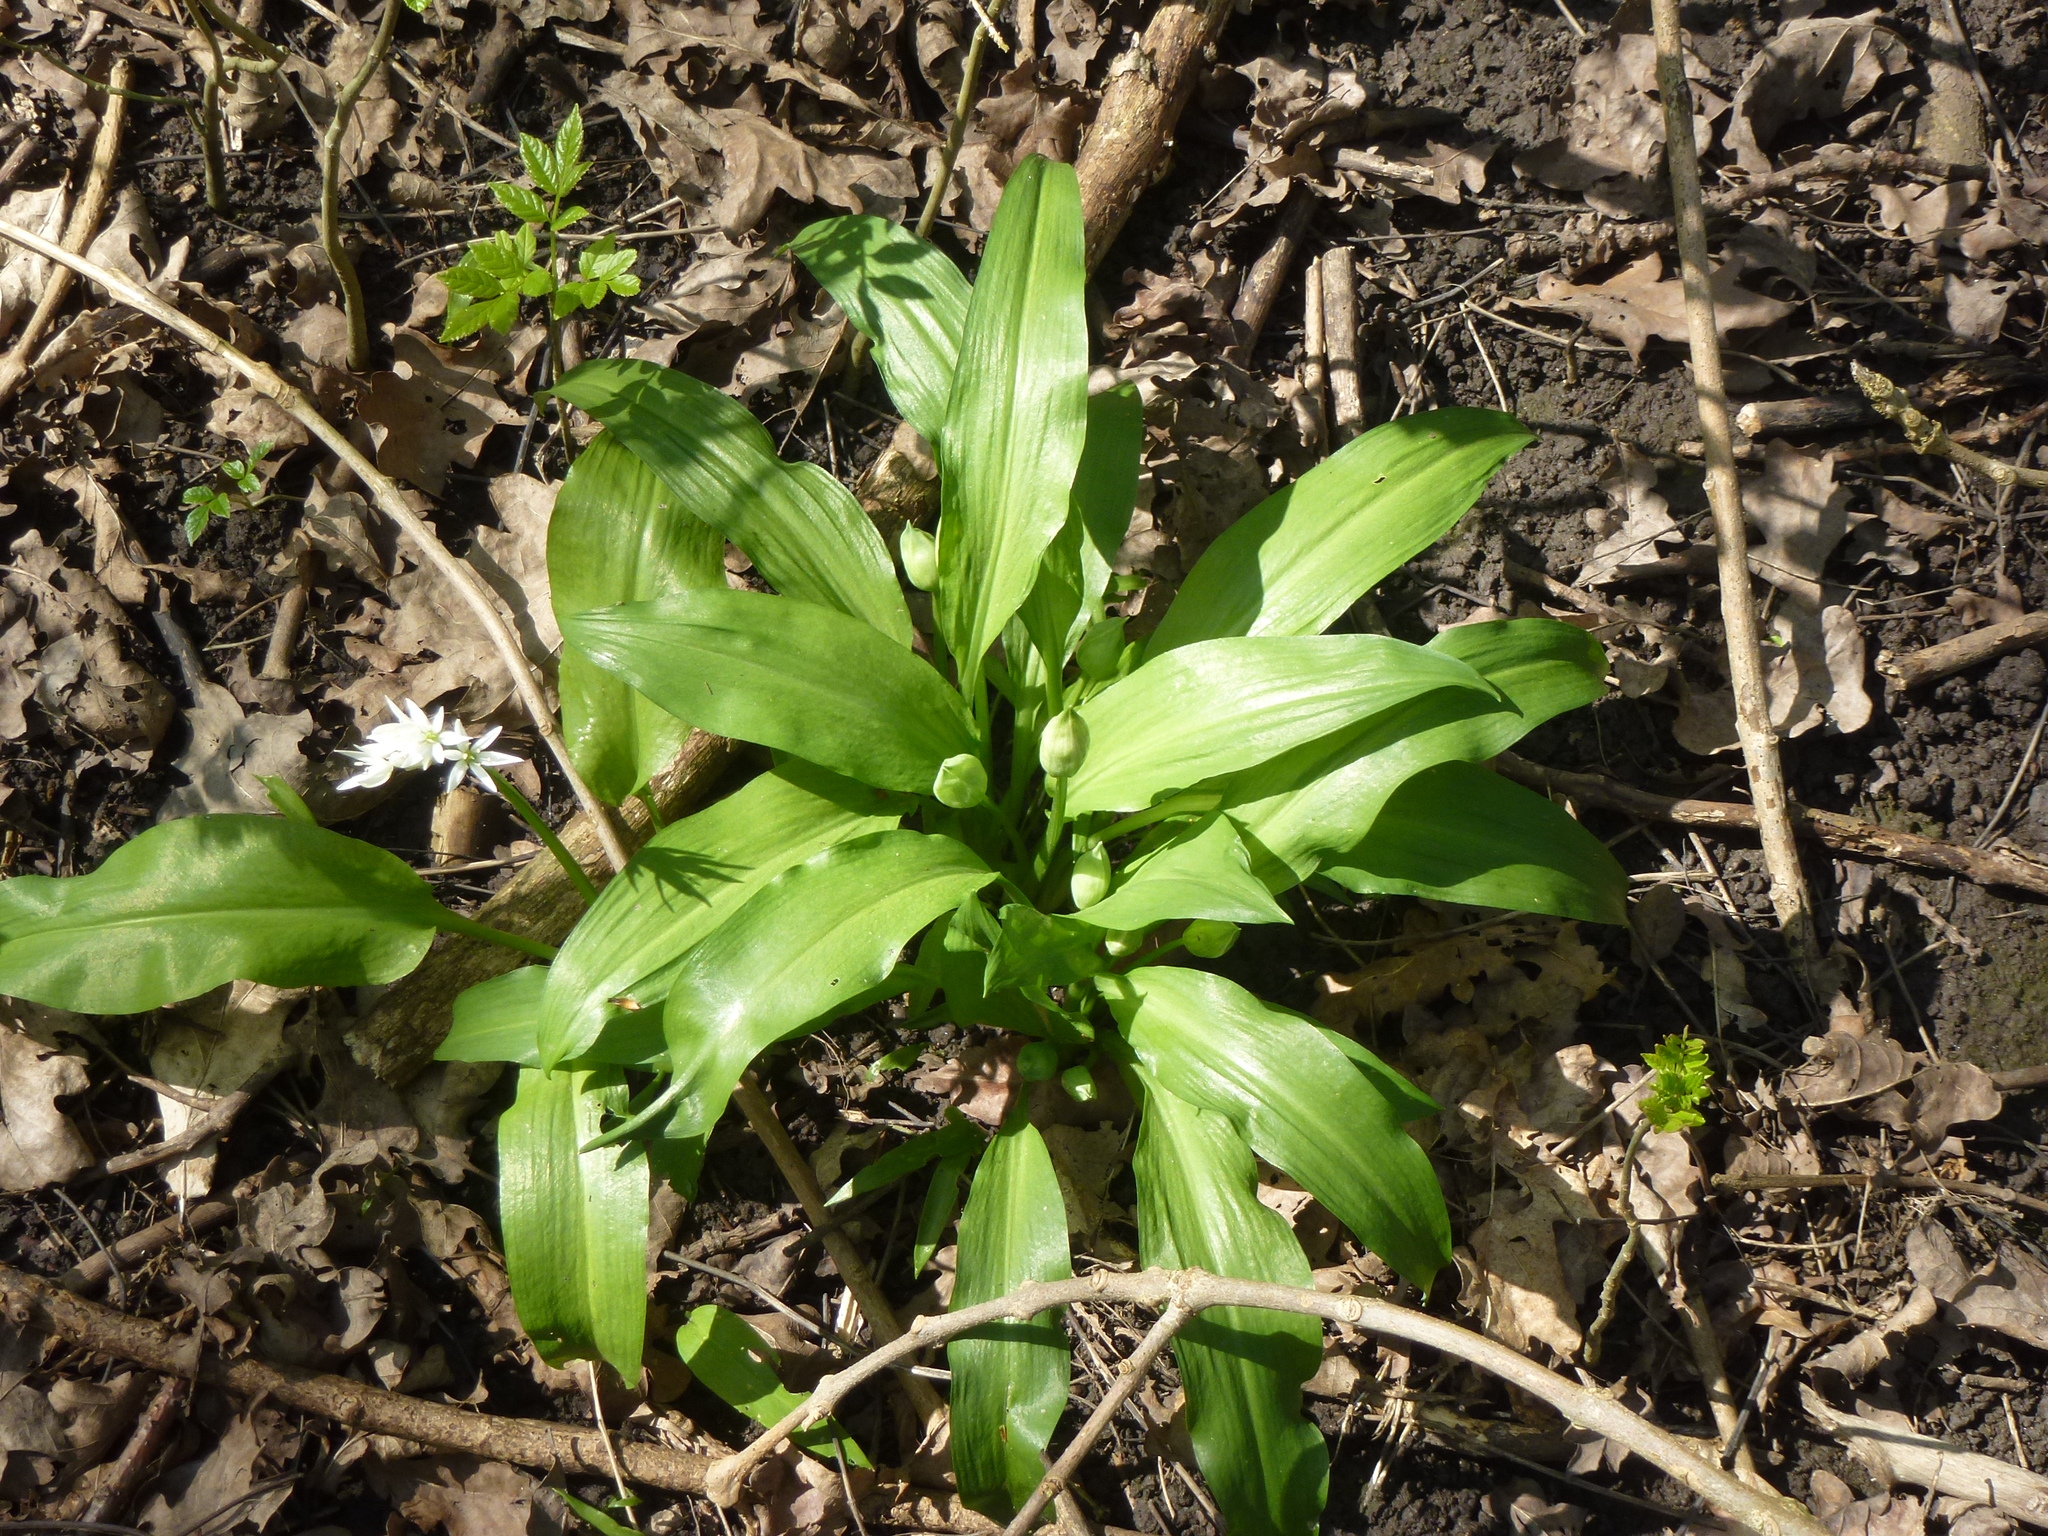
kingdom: Plantae
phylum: Tracheophyta
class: Liliopsida
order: Asparagales
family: Amaryllidaceae
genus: Allium
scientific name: Allium ursinum
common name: Ramsons
